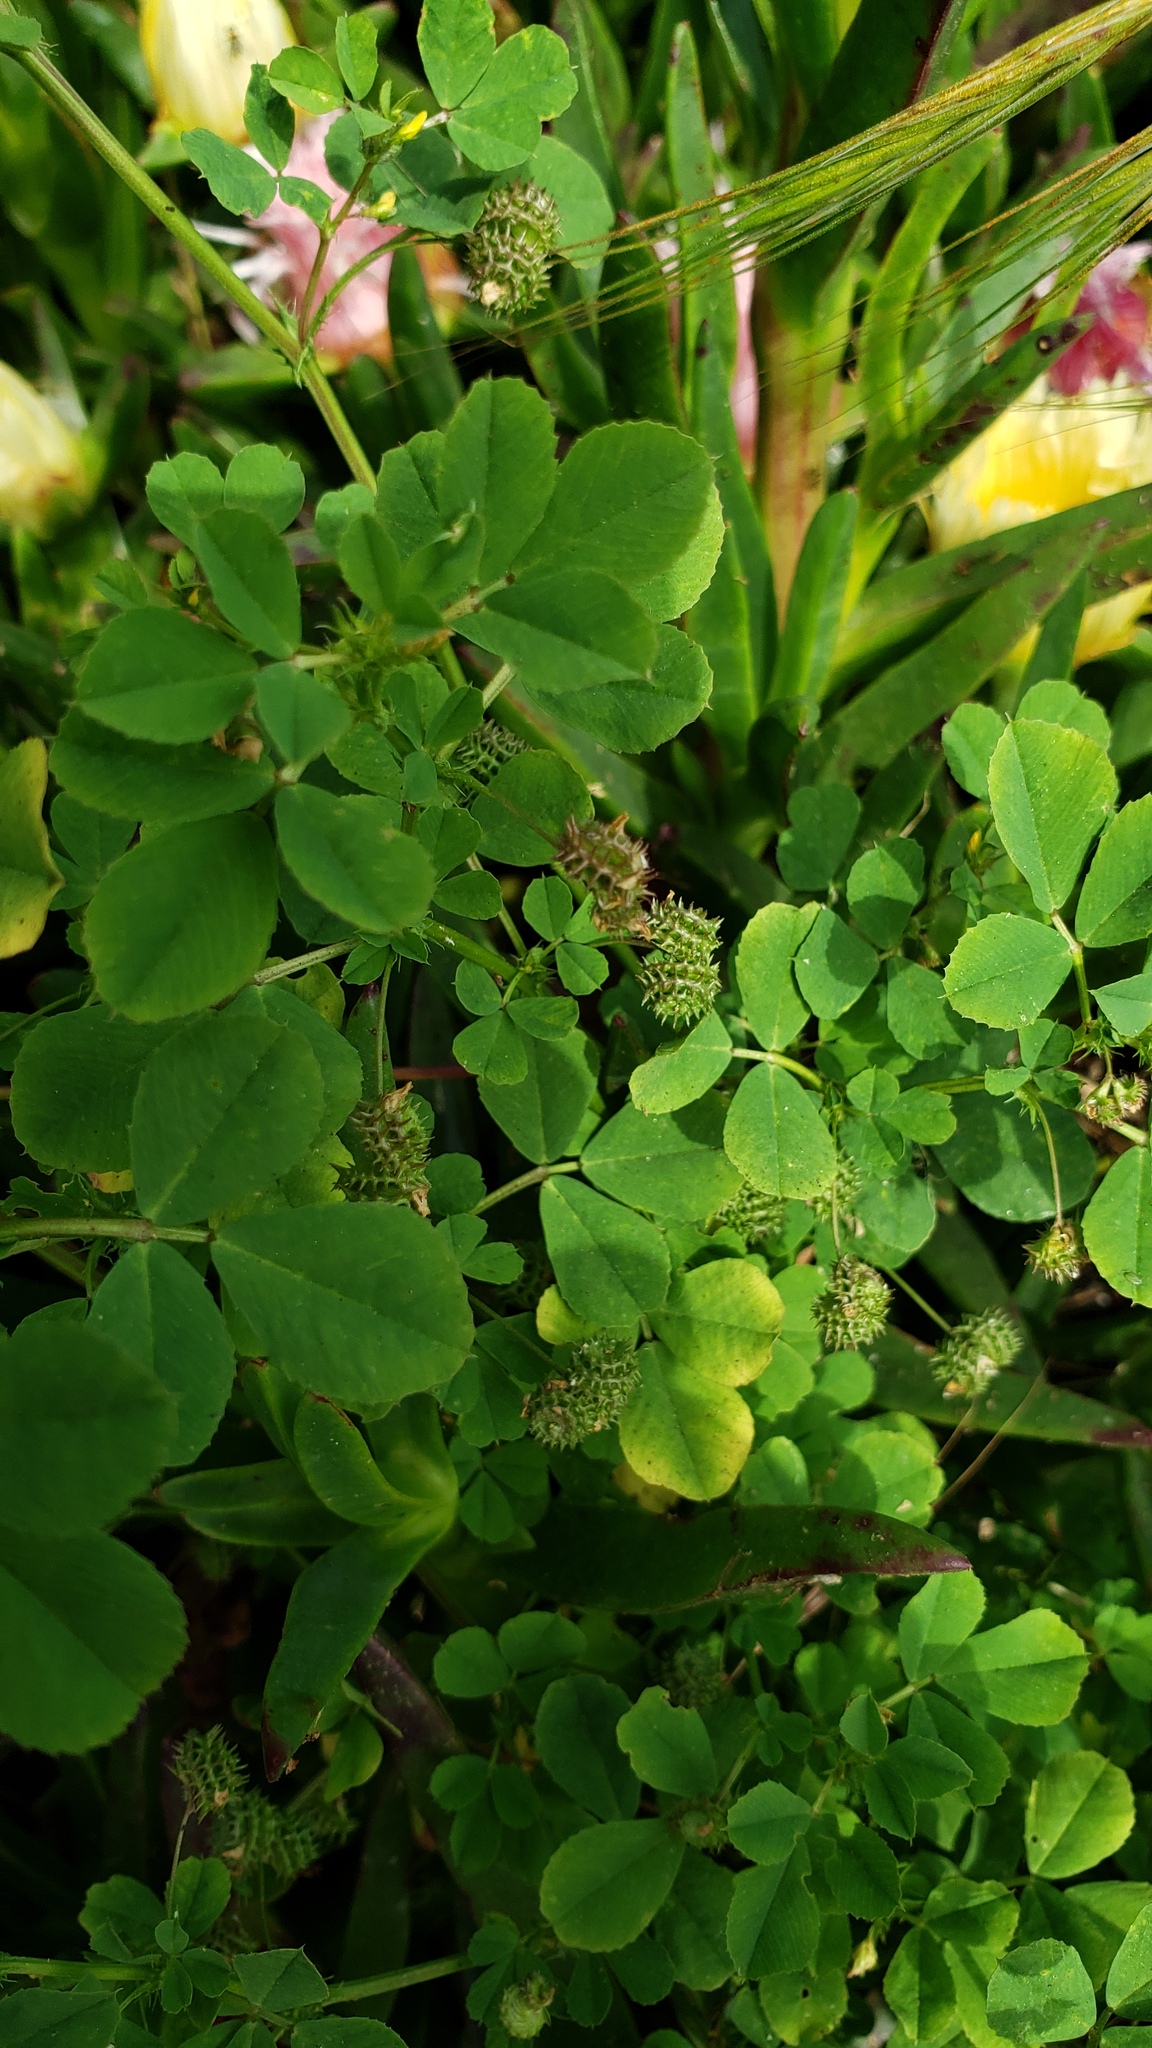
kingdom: Plantae
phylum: Tracheophyta
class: Magnoliopsida
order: Fabales
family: Fabaceae
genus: Medicago
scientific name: Medicago polymorpha
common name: Burclover
